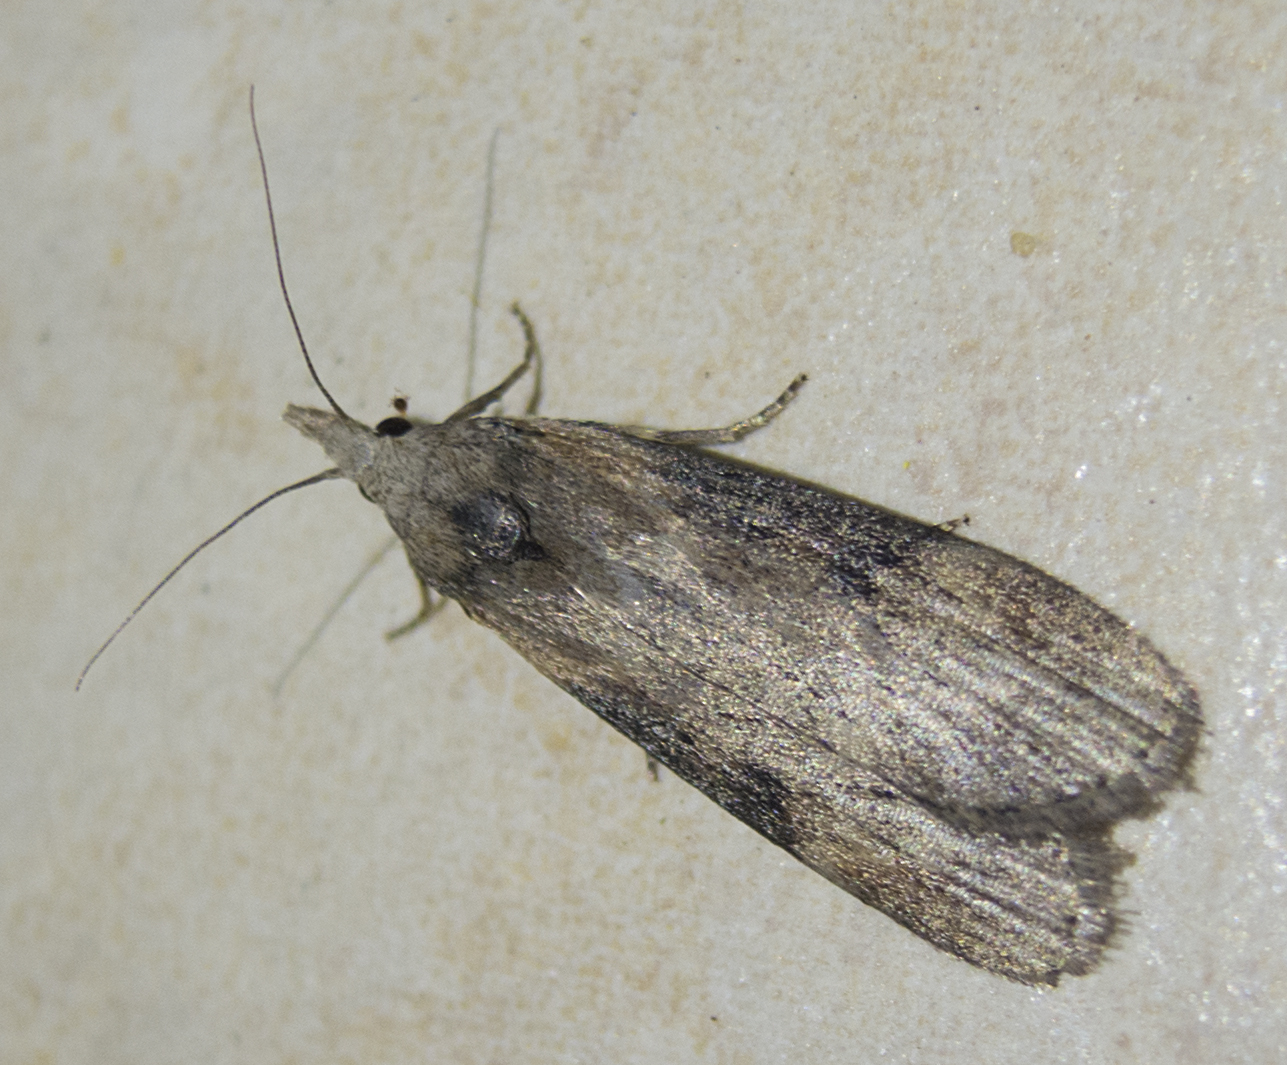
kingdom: Animalia
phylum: Arthropoda
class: Insecta
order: Lepidoptera
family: Pyralidae
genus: Lamoria
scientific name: Lamoria anella
